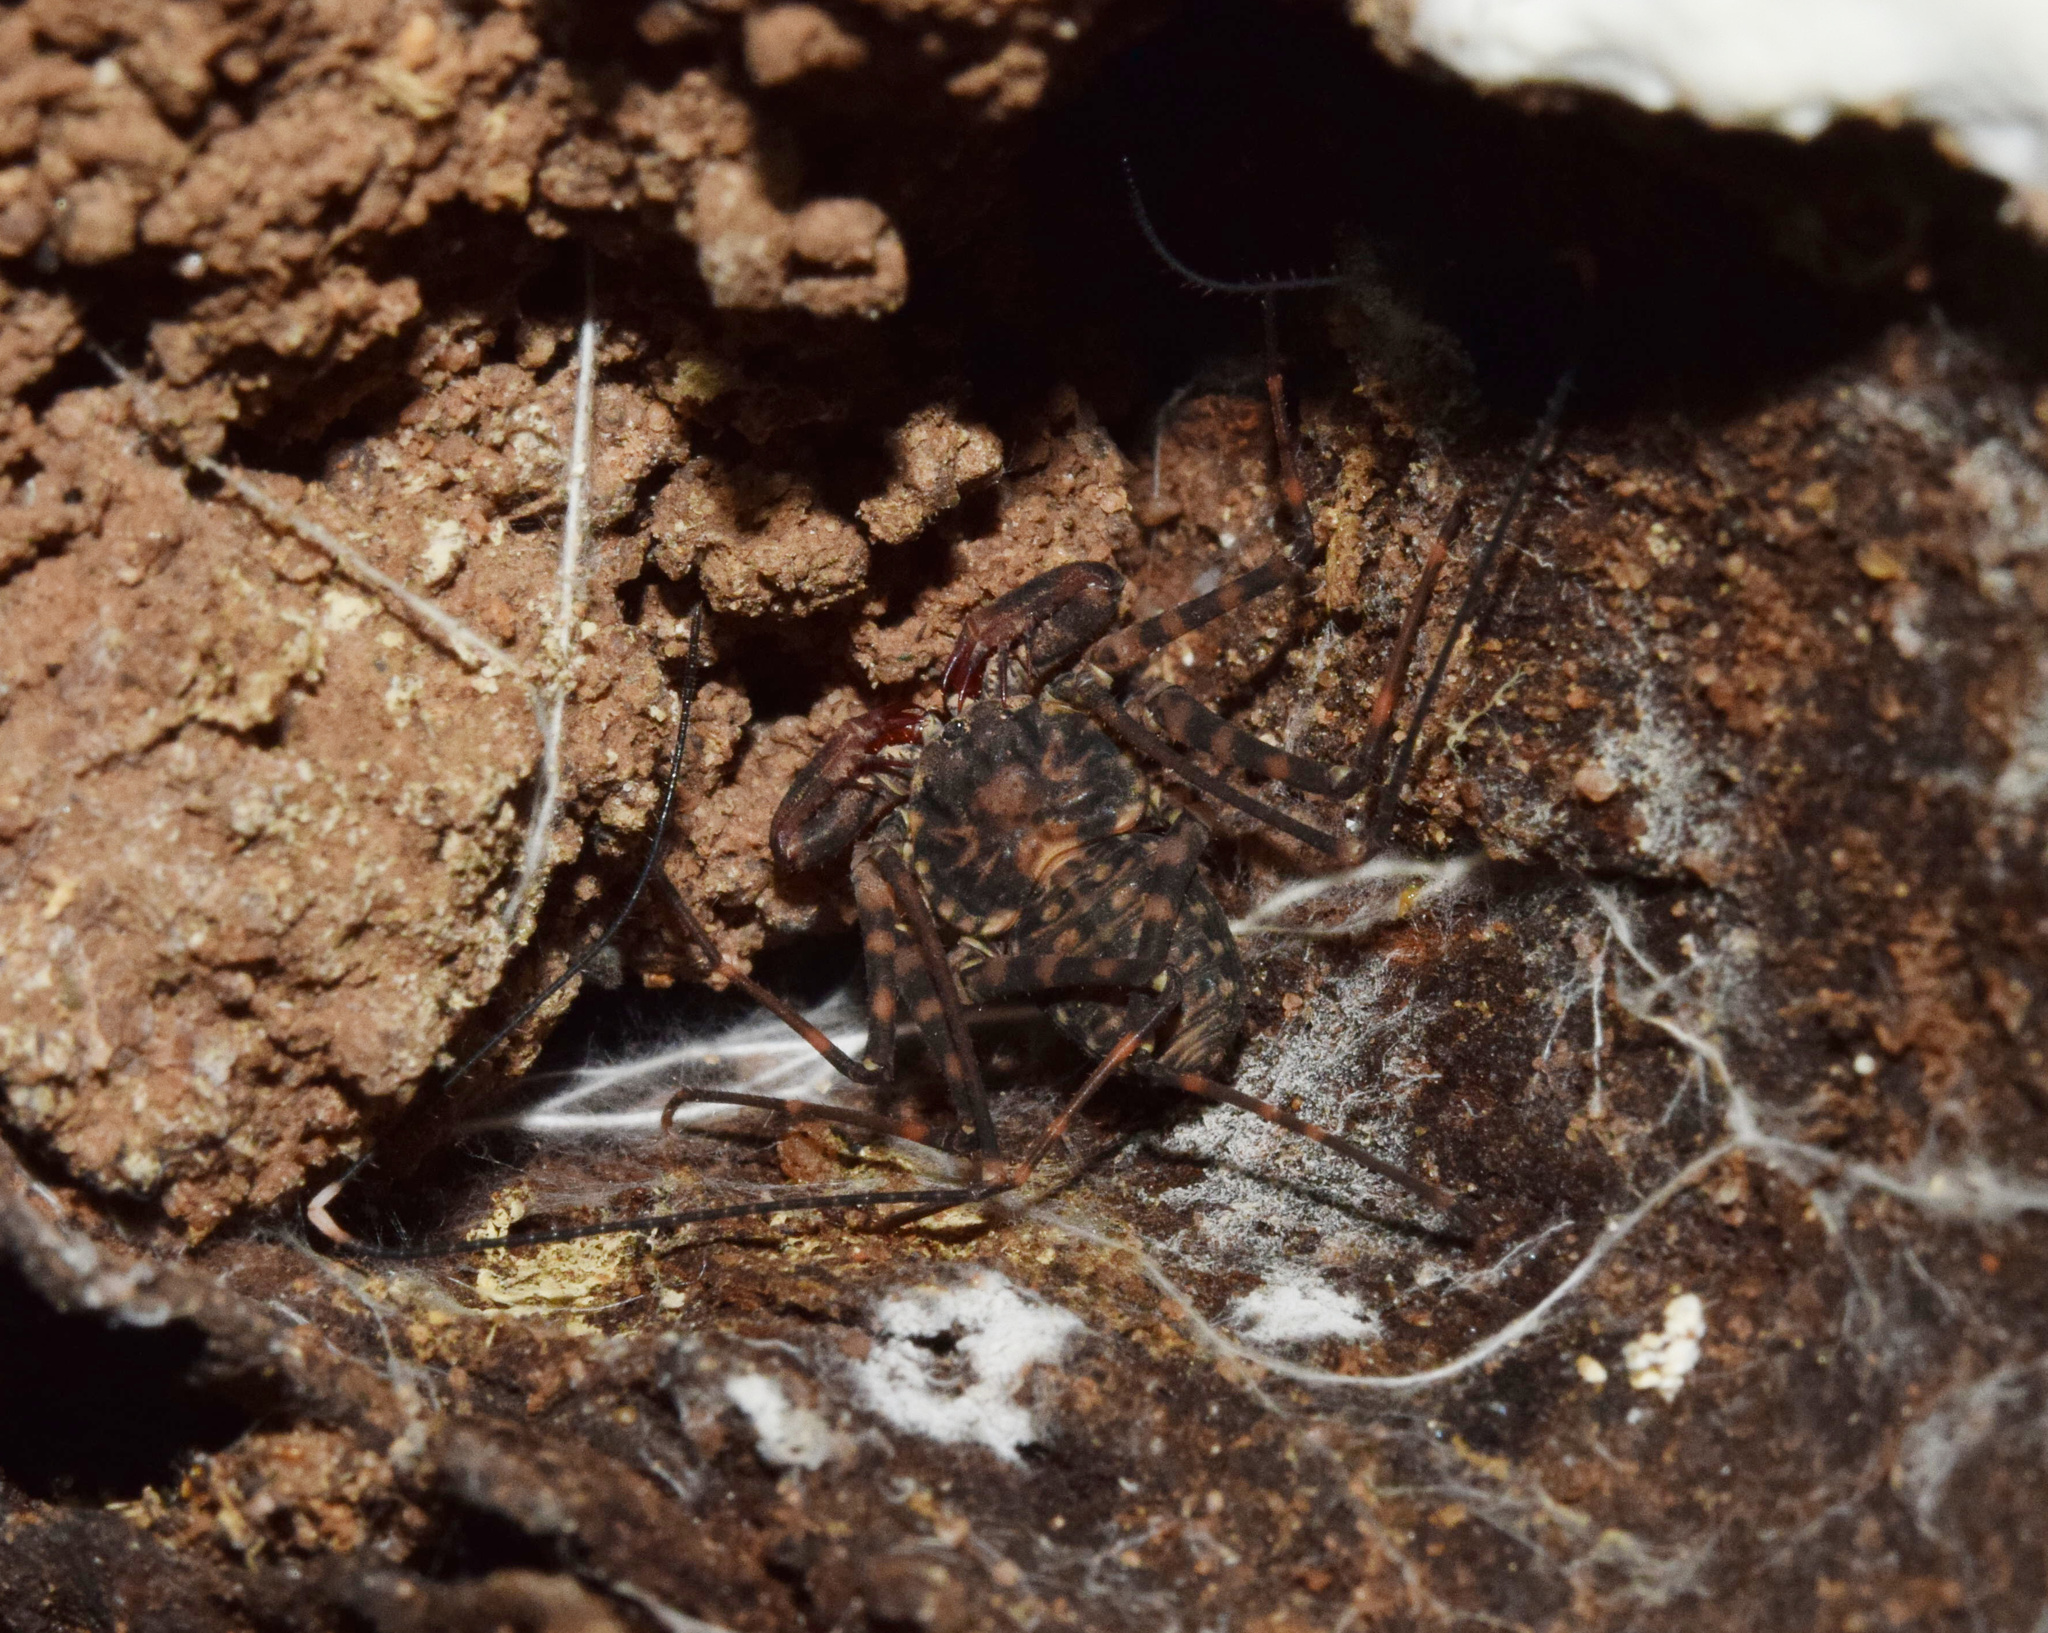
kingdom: Animalia
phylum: Arthropoda
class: Arachnida
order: Amblypygi
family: Phrynichidae
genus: Damon
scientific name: Damon annulatipes
